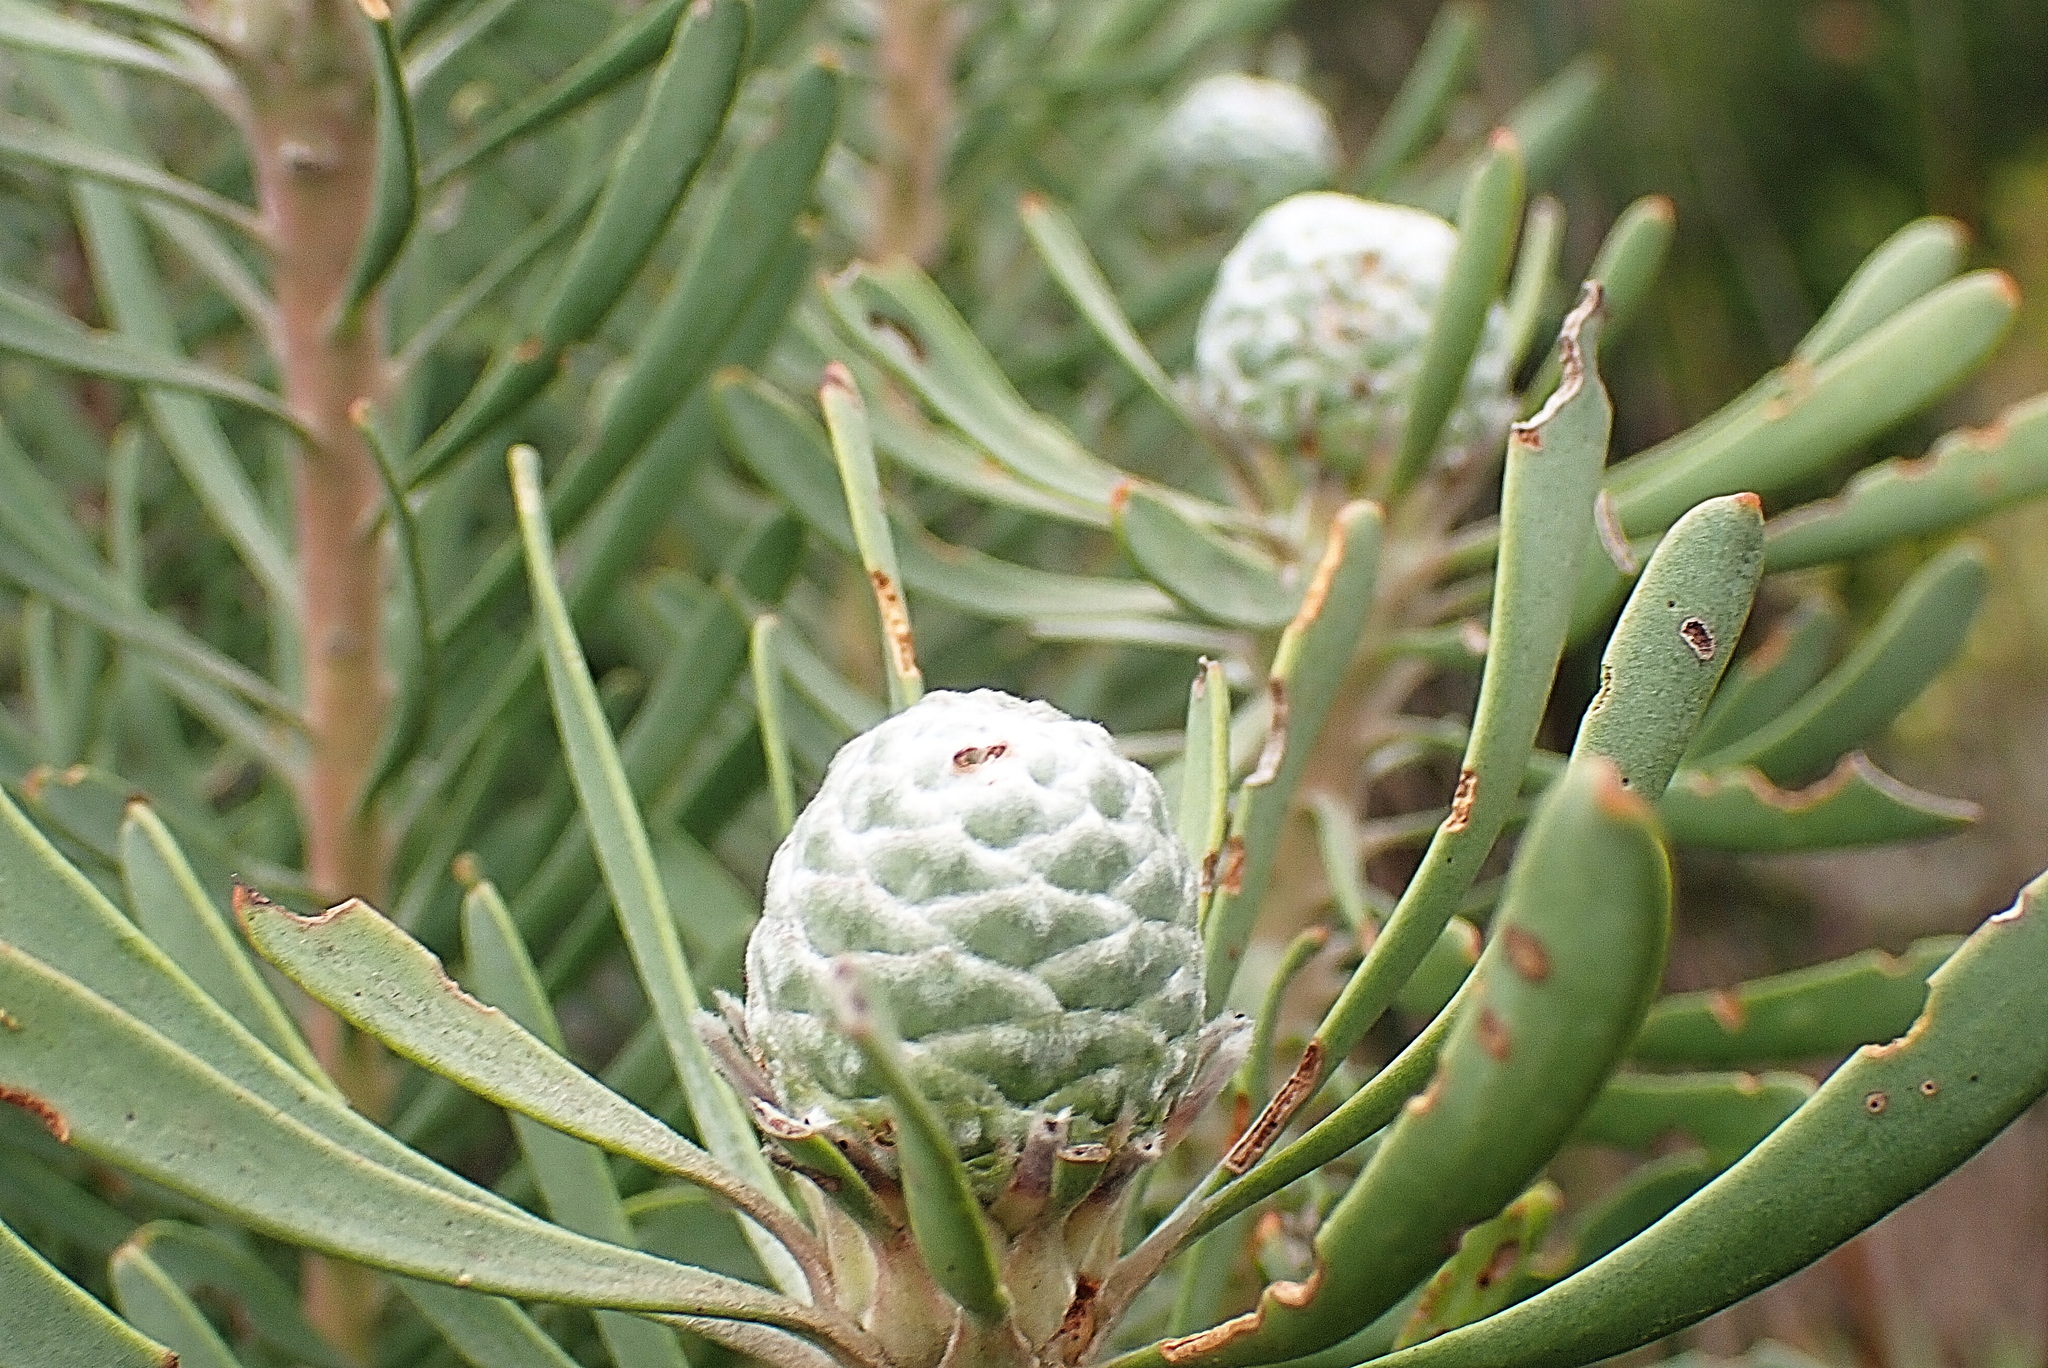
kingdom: Plantae
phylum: Tracheophyta
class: Magnoliopsida
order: Proteales
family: Proteaceae
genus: Leucadendron
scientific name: Leucadendron galpinii
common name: Hairless conebush
